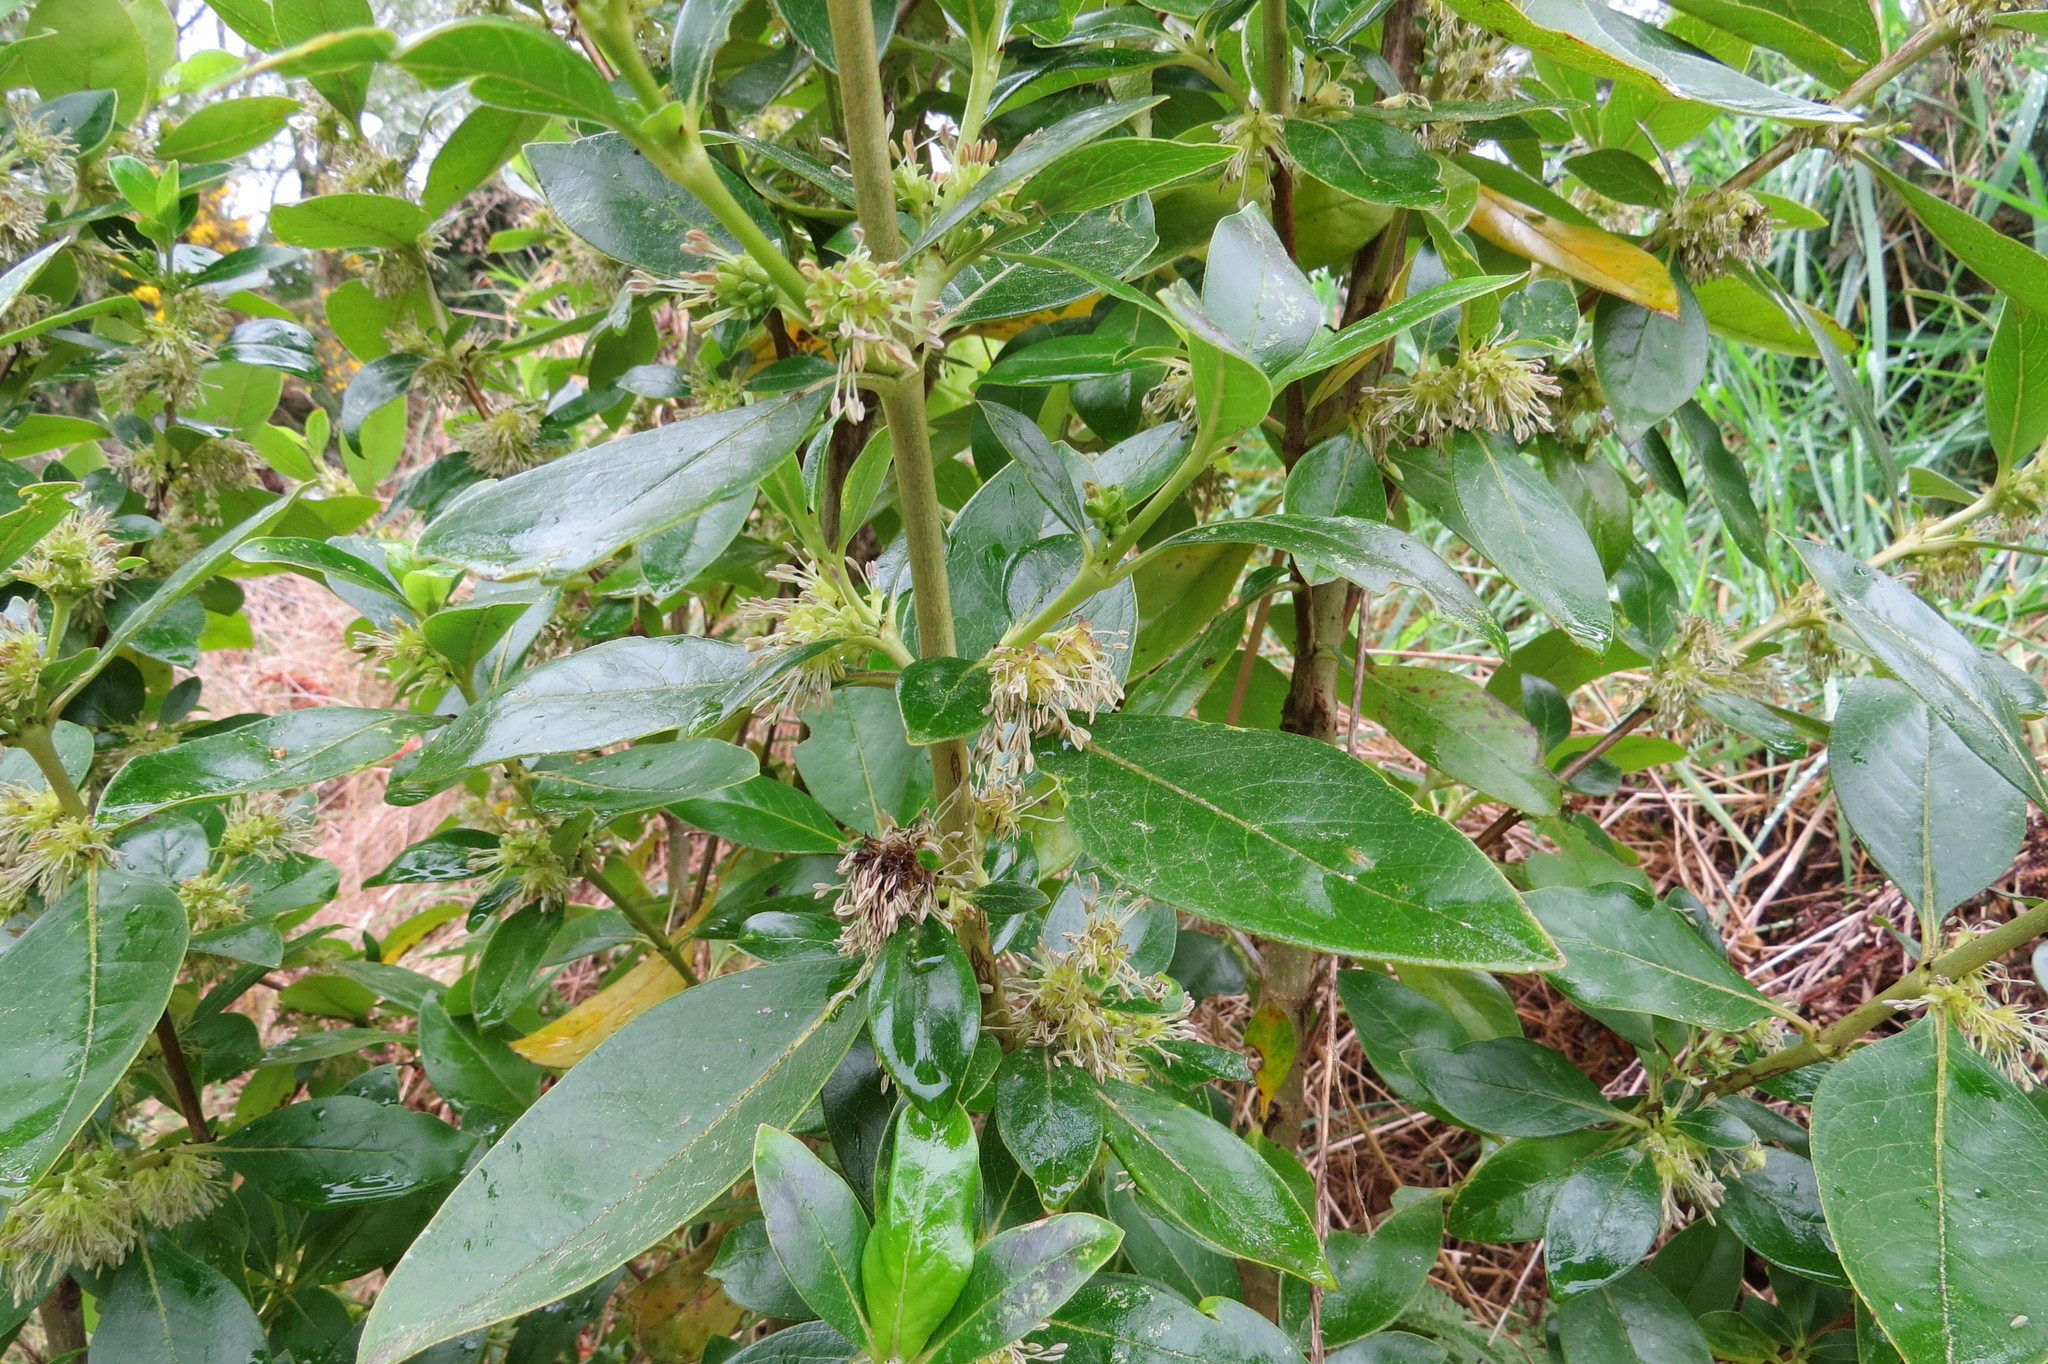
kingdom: Plantae
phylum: Tracheophyta
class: Magnoliopsida
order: Gentianales
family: Rubiaceae
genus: Coprosma
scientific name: Coprosma robusta
